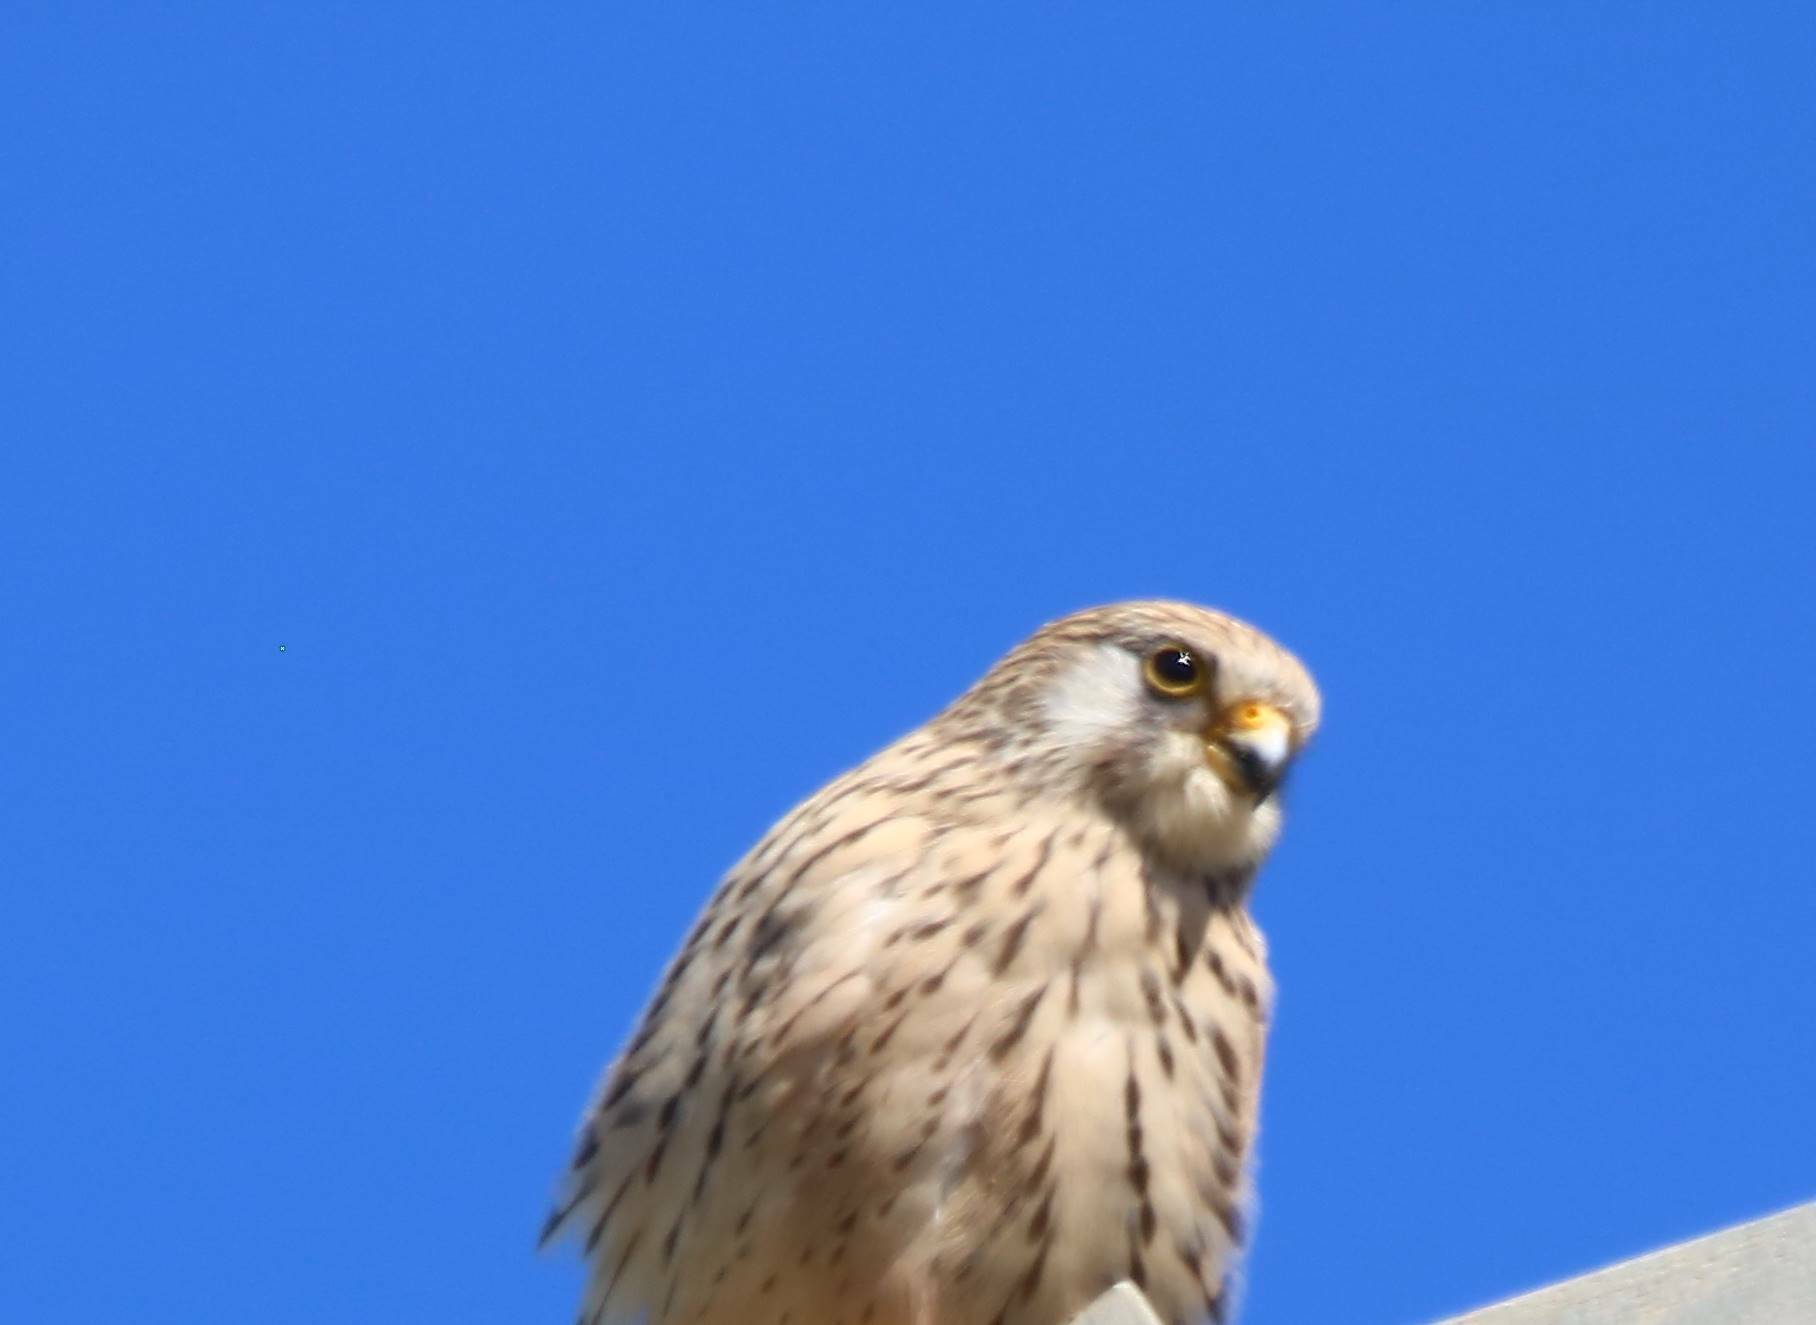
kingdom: Animalia
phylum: Chordata
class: Aves
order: Falconiformes
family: Falconidae
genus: Falco
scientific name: Falco tinnunculus
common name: Common kestrel
